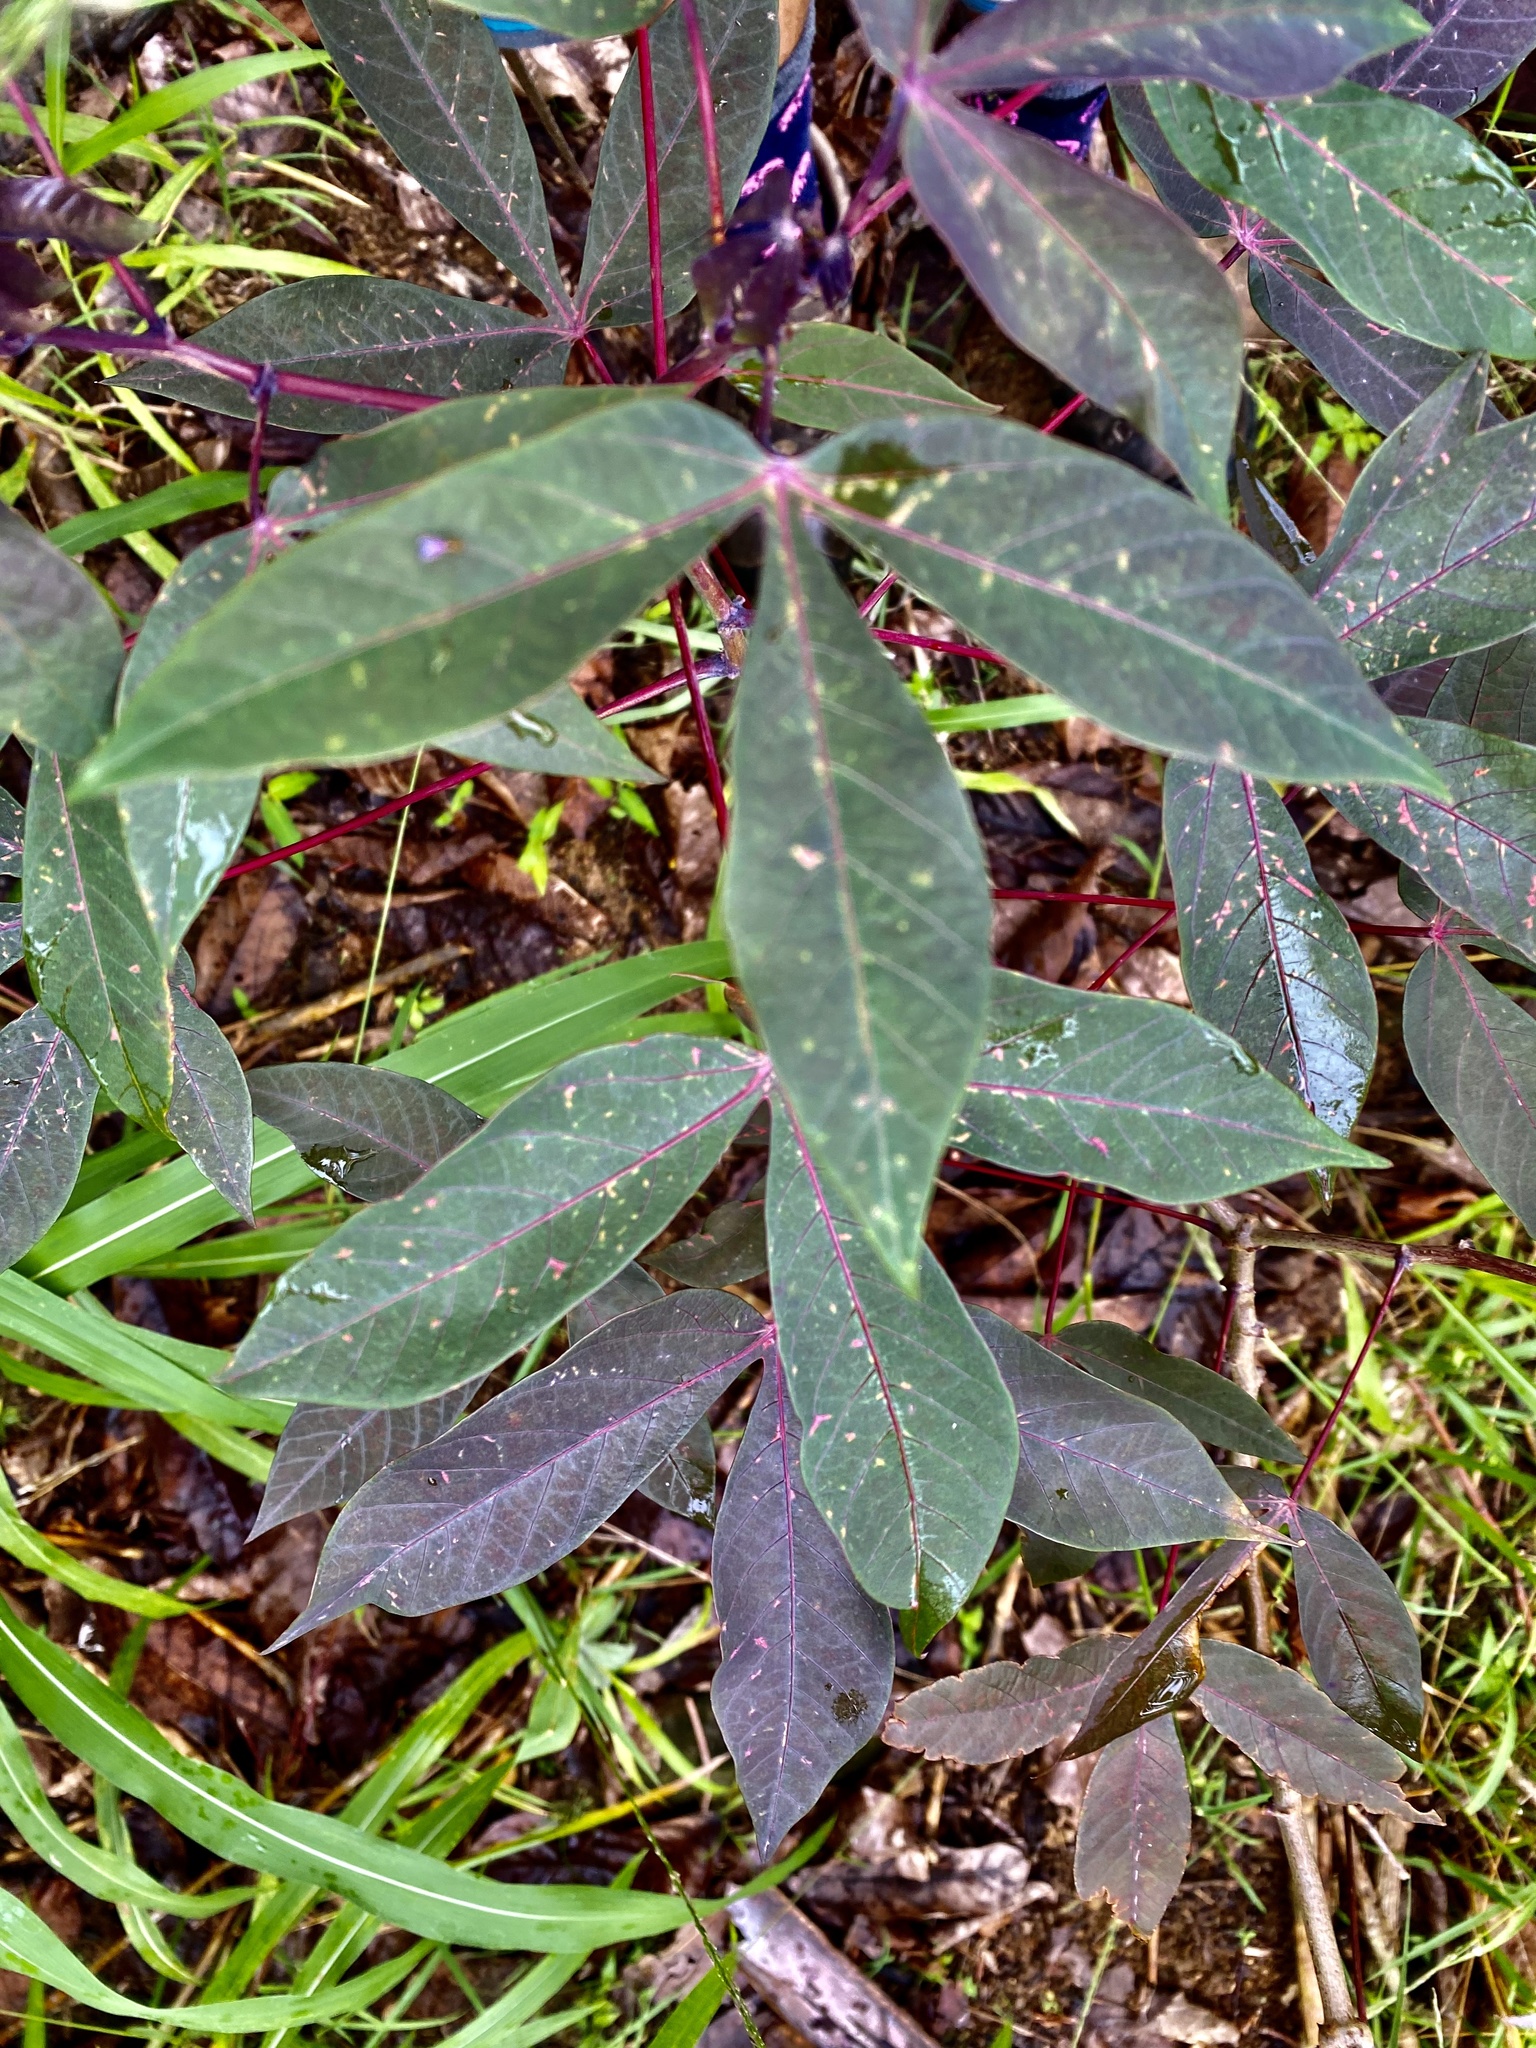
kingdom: Plantae
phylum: Tracheophyta
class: Magnoliopsida
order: Malpighiales
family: Euphorbiaceae
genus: Manihot
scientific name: Manihot esculenta
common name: Cassava
